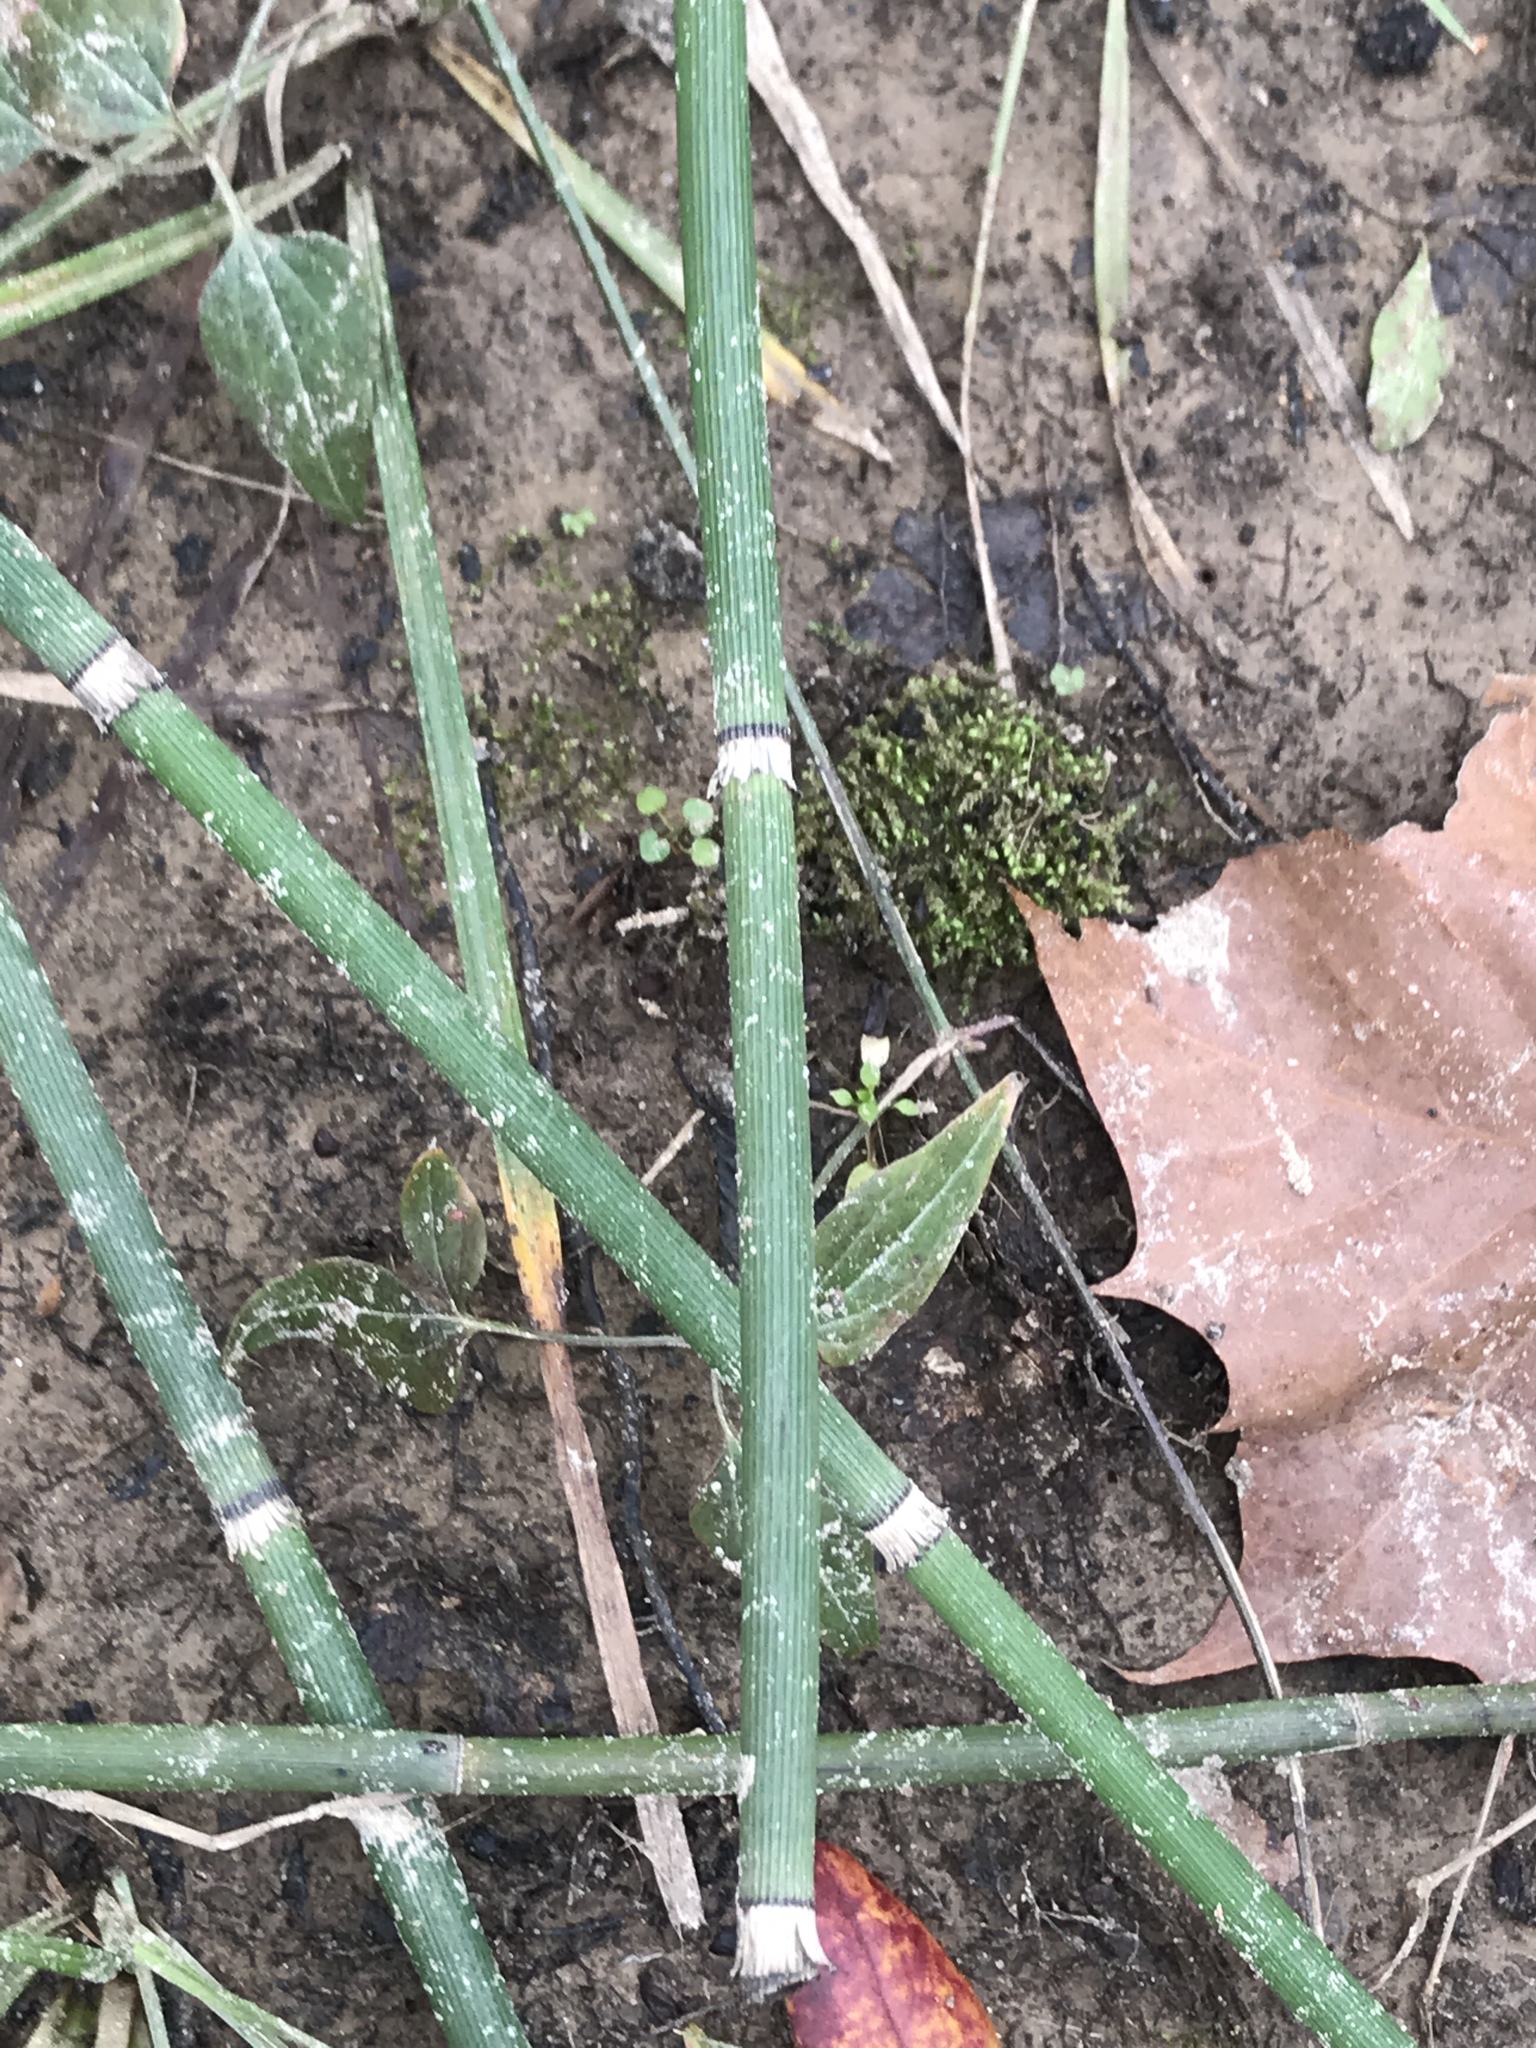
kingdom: Plantae
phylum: Tracheophyta
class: Polypodiopsida
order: Equisetales
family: Equisetaceae
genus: Equisetum
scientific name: Equisetum hyemale
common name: Rough horsetail
